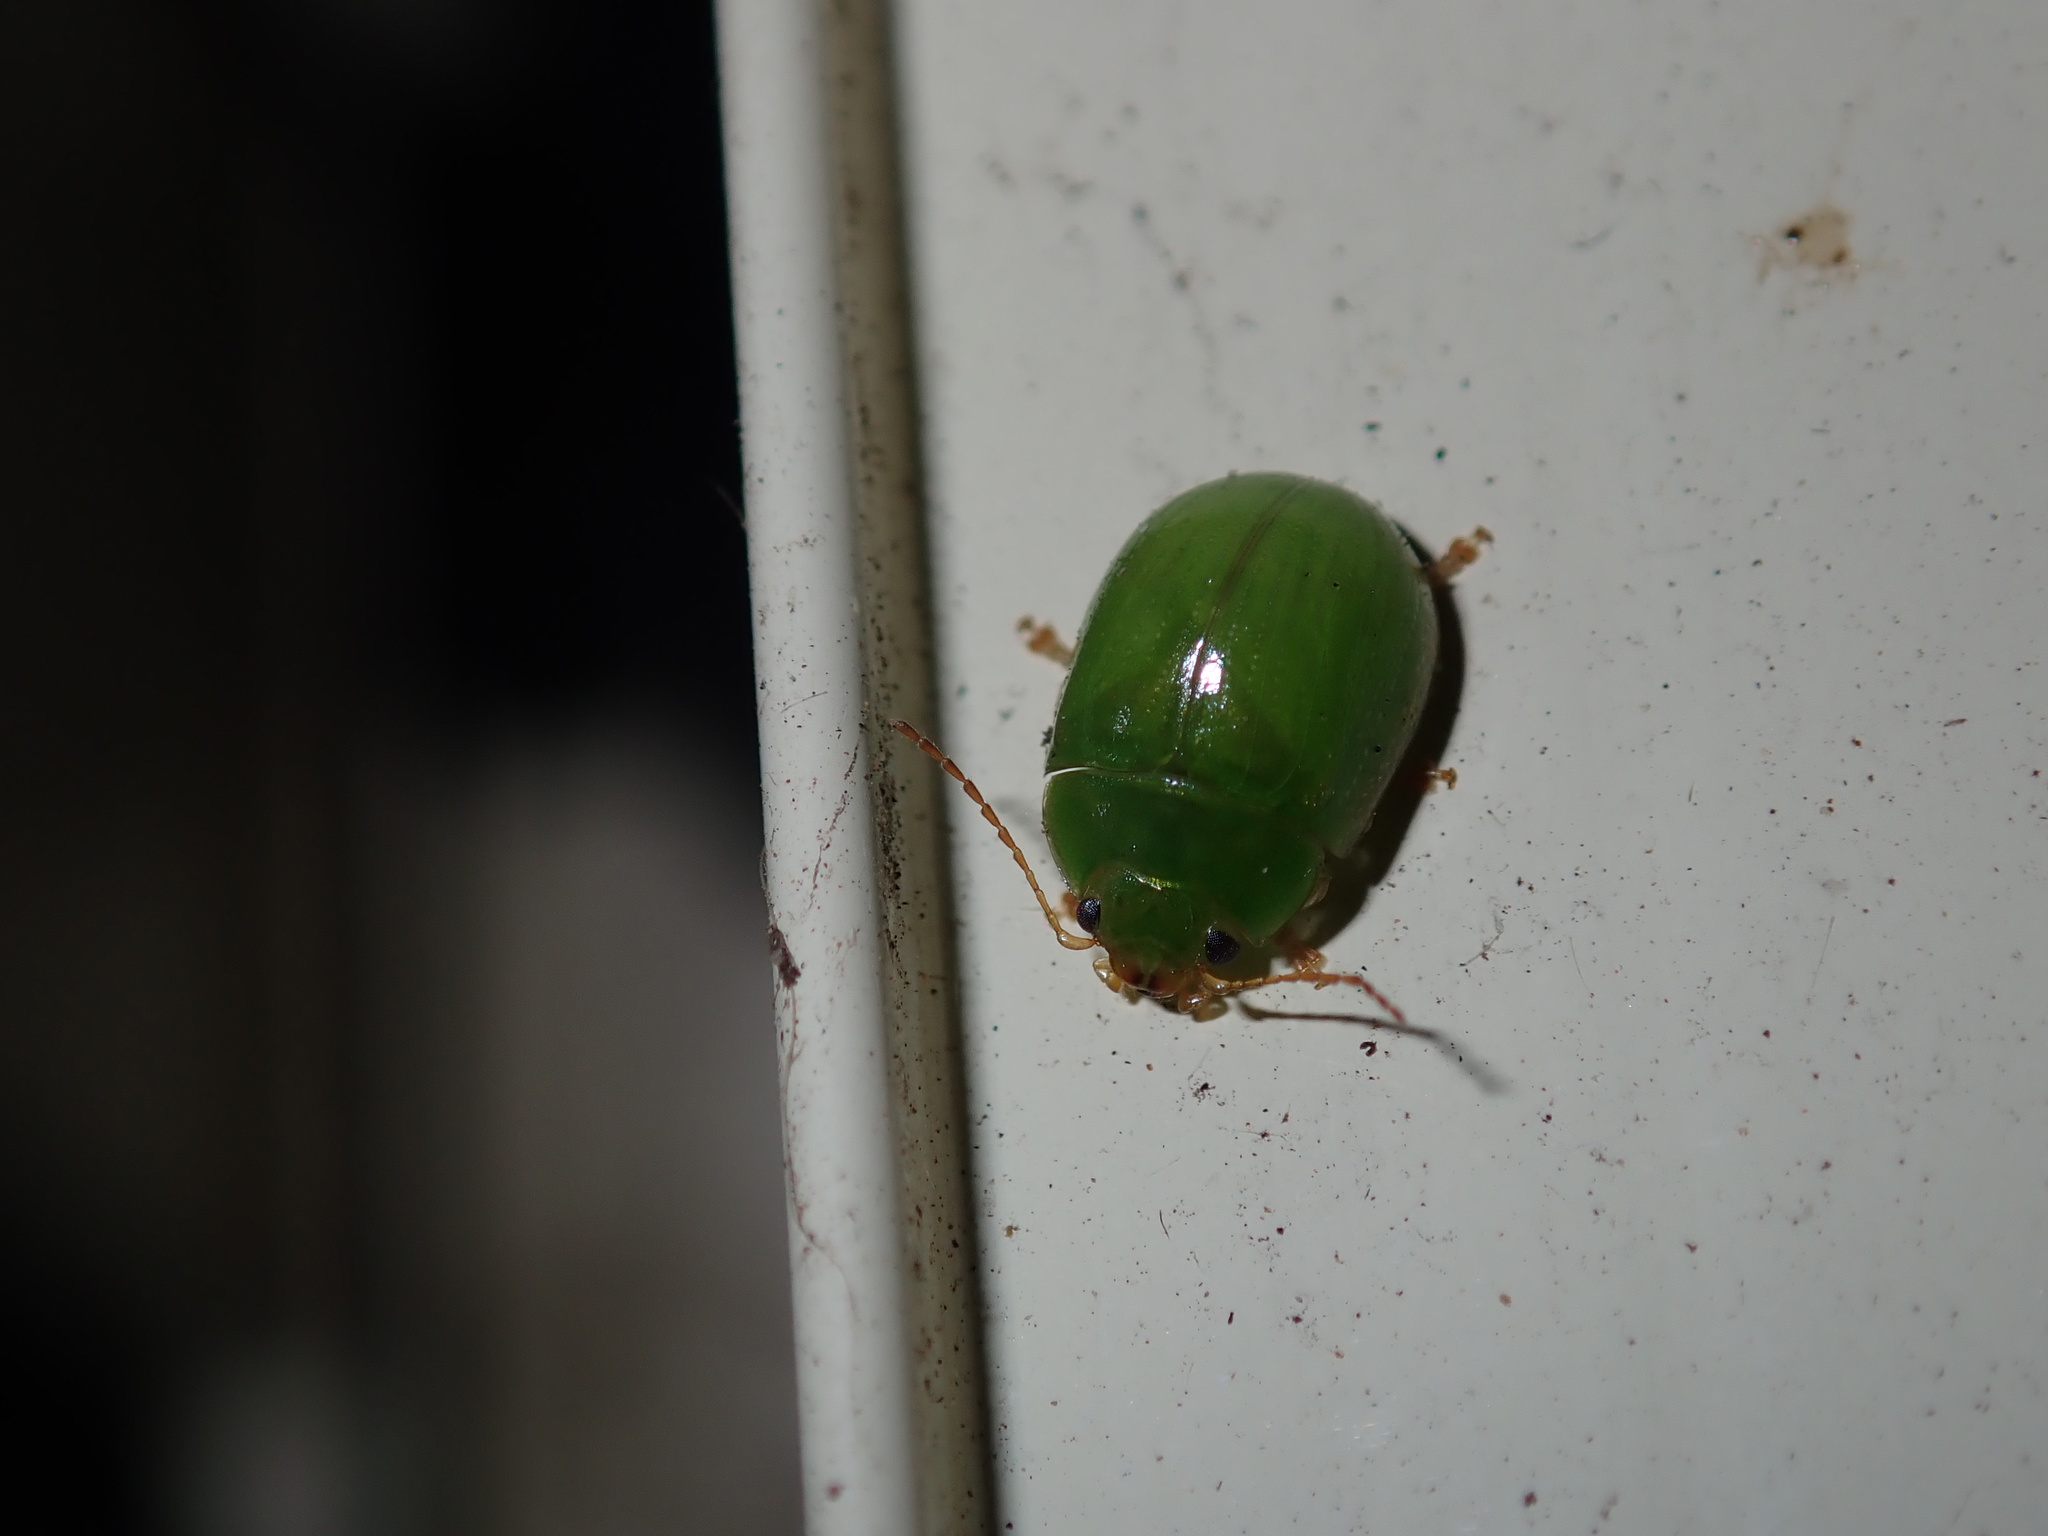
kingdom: Animalia
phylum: Arthropoda
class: Insecta
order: Coleoptera
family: Chrysomelidae
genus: Paropsides
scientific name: Paropsides
